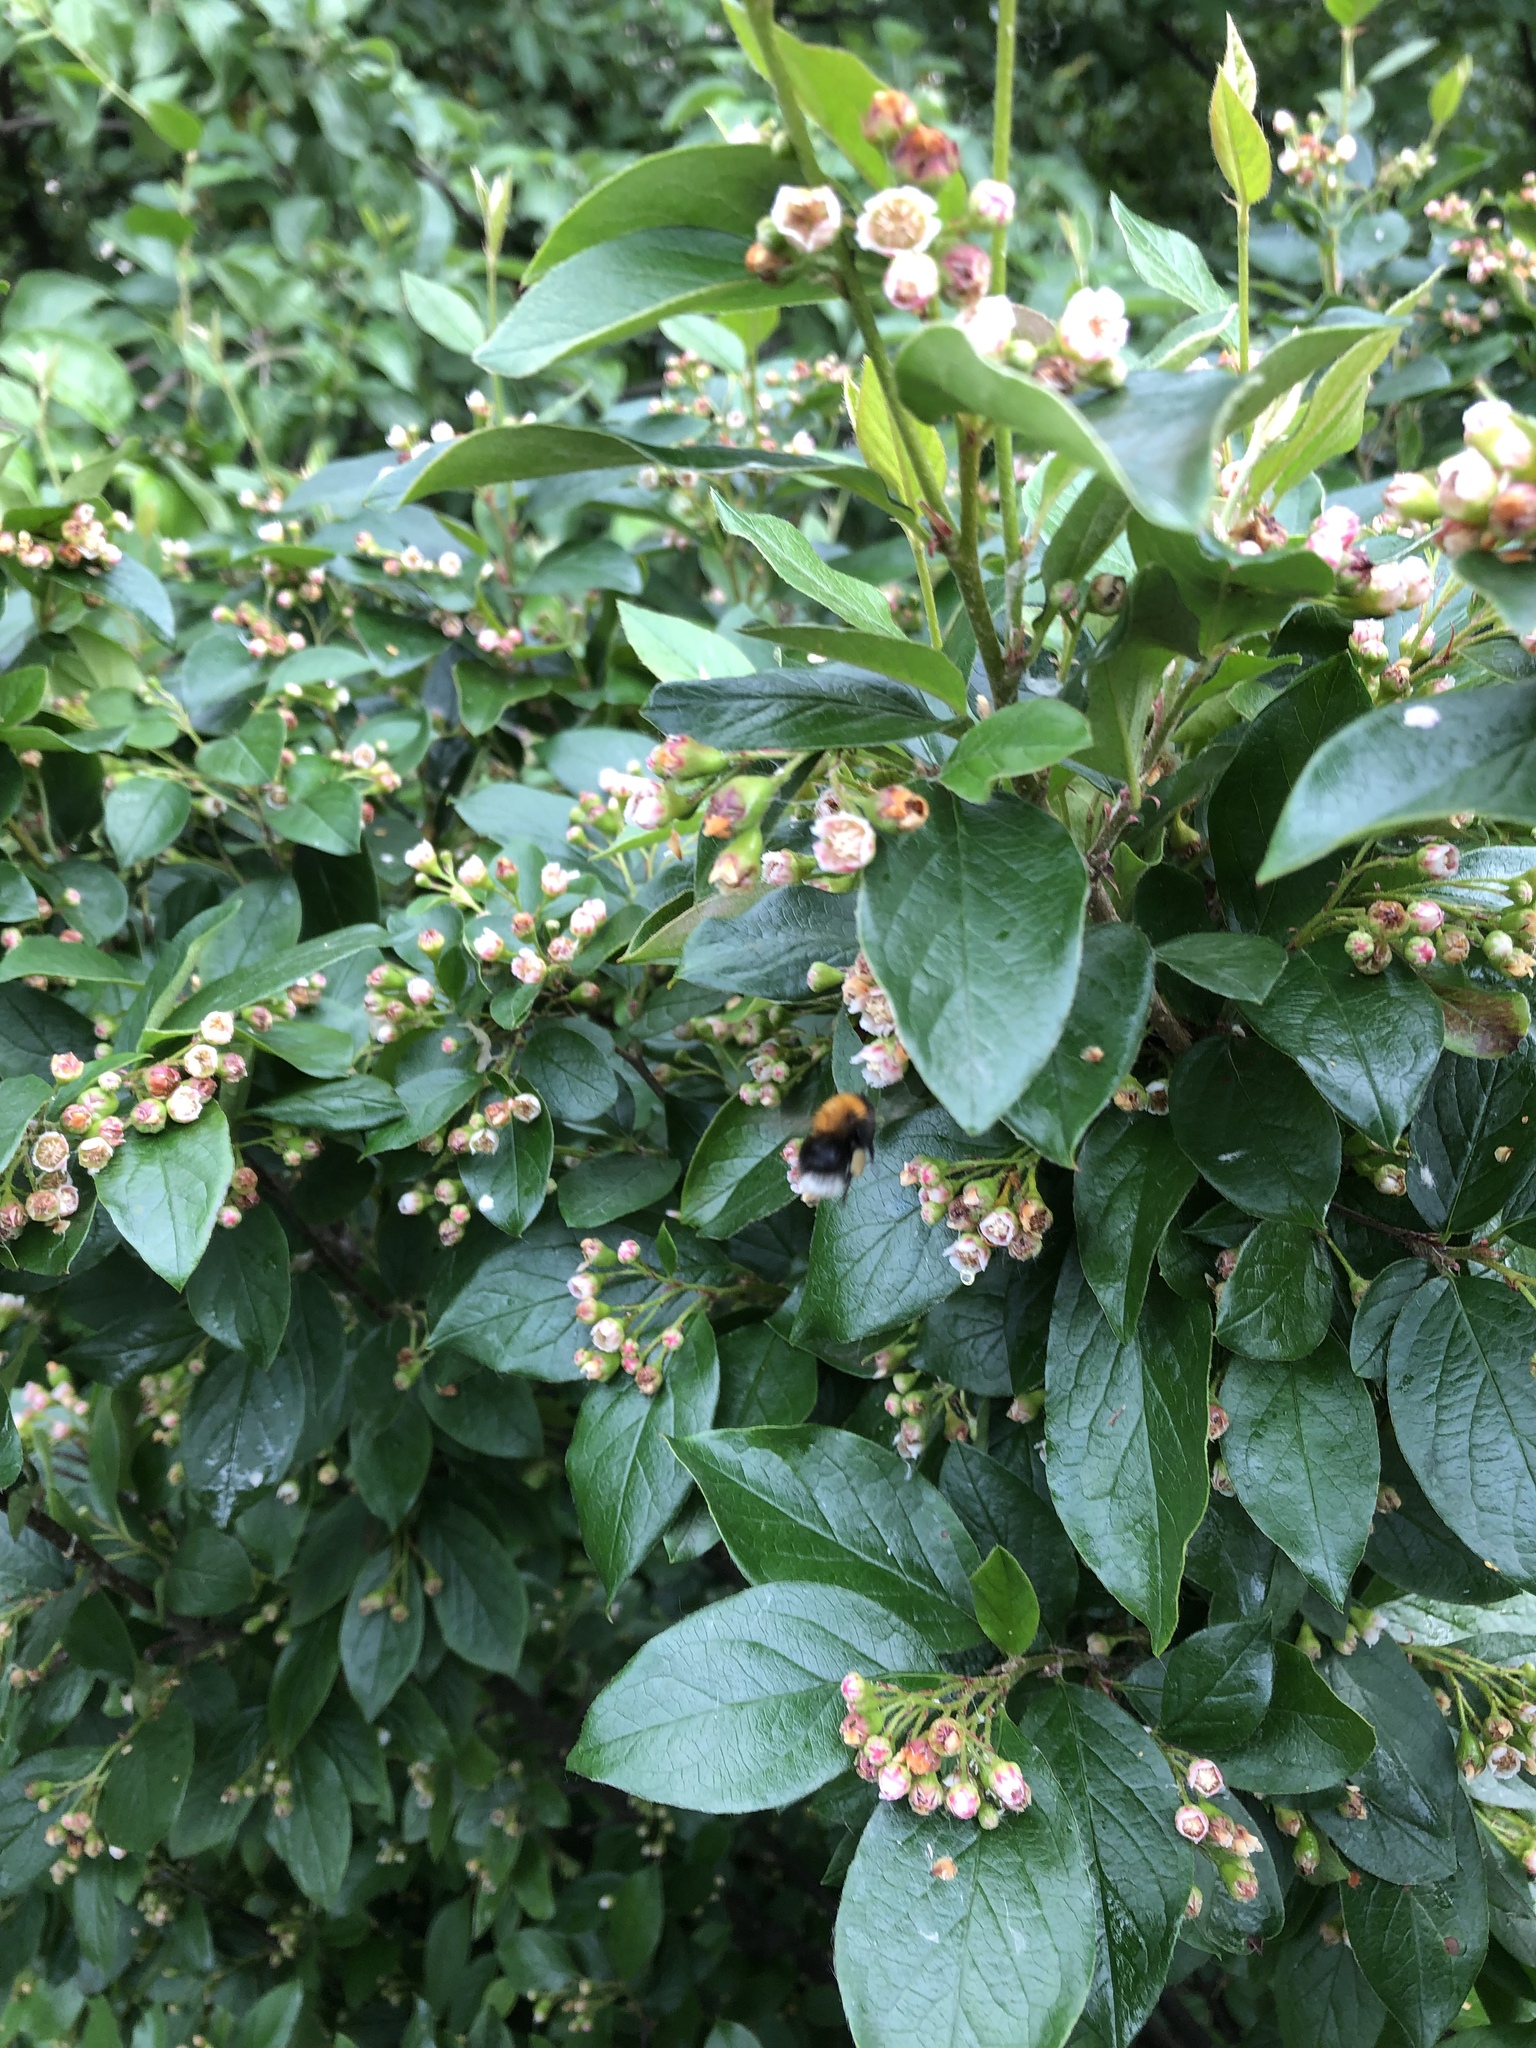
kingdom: Animalia
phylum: Arthropoda
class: Insecta
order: Hymenoptera
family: Apidae
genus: Bombus
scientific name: Bombus hypnorum
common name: New garden bumblebee
